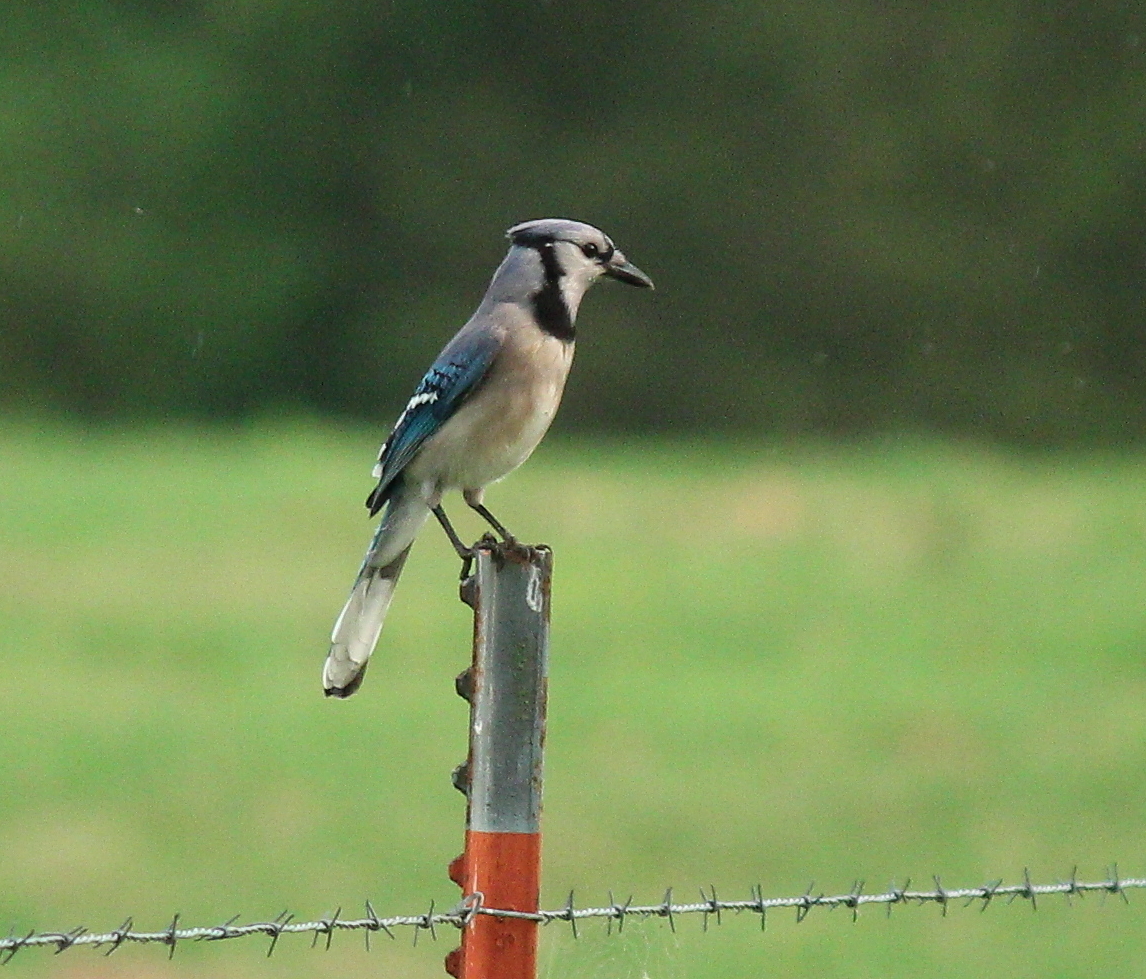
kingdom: Animalia
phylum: Chordata
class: Aves
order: Passeriformes
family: Corvidae
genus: Cyanocitta
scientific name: Cyanocitta cristata
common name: Blue jay
